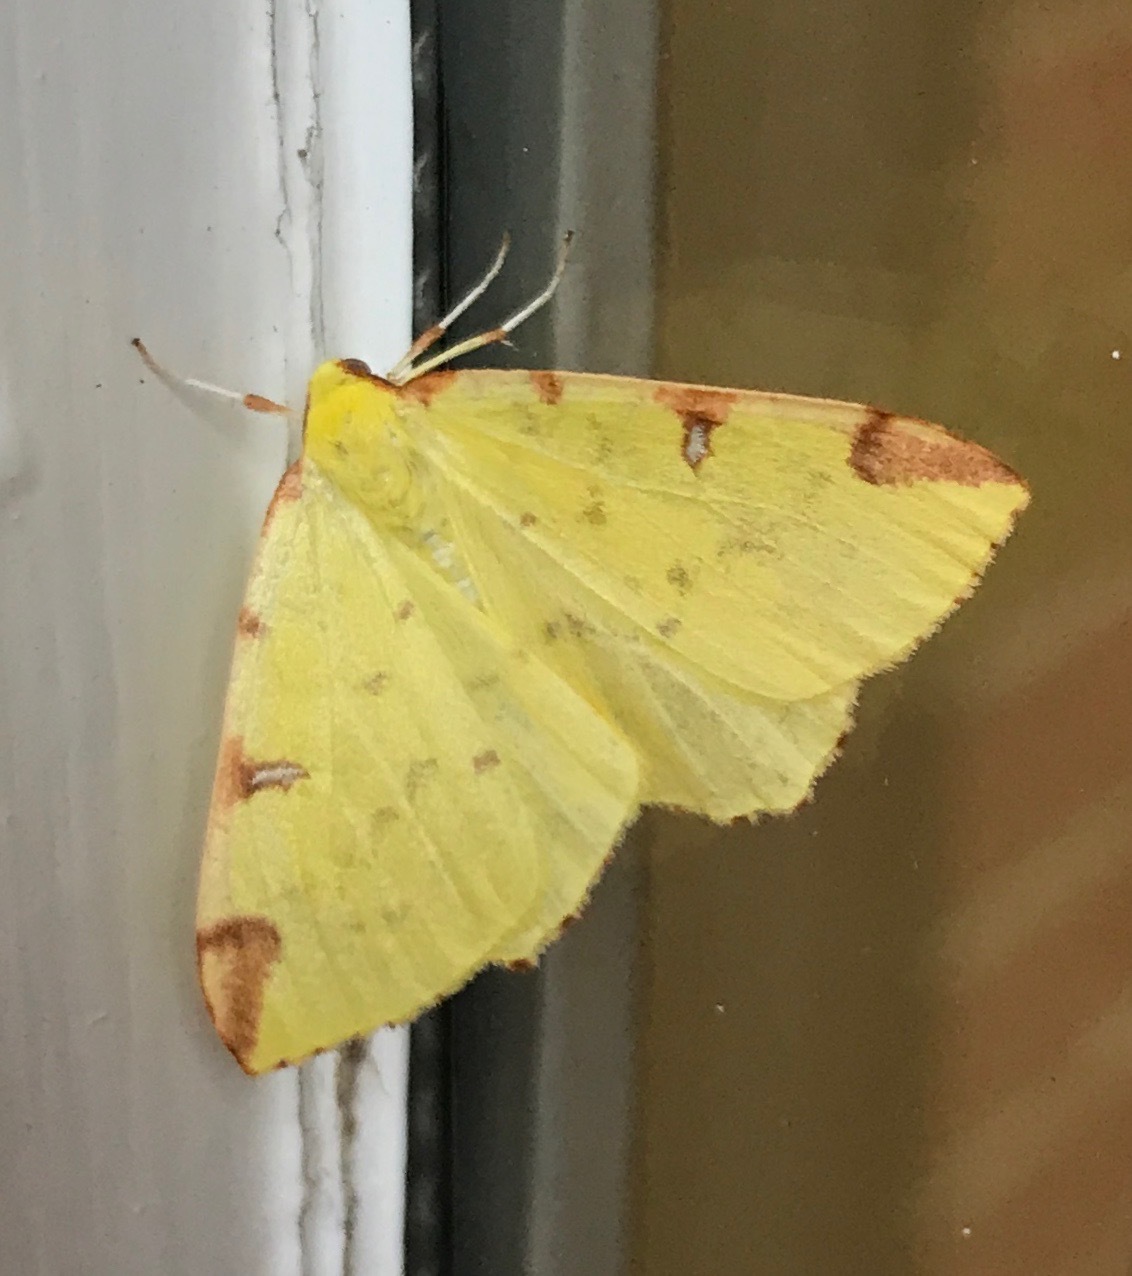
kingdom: Animalia
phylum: Arthropoda
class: Insecta
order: Lepidoptera
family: Geometridae
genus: Opisthograptis
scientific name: Opisthograptis luteolata
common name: Brimstone moth
